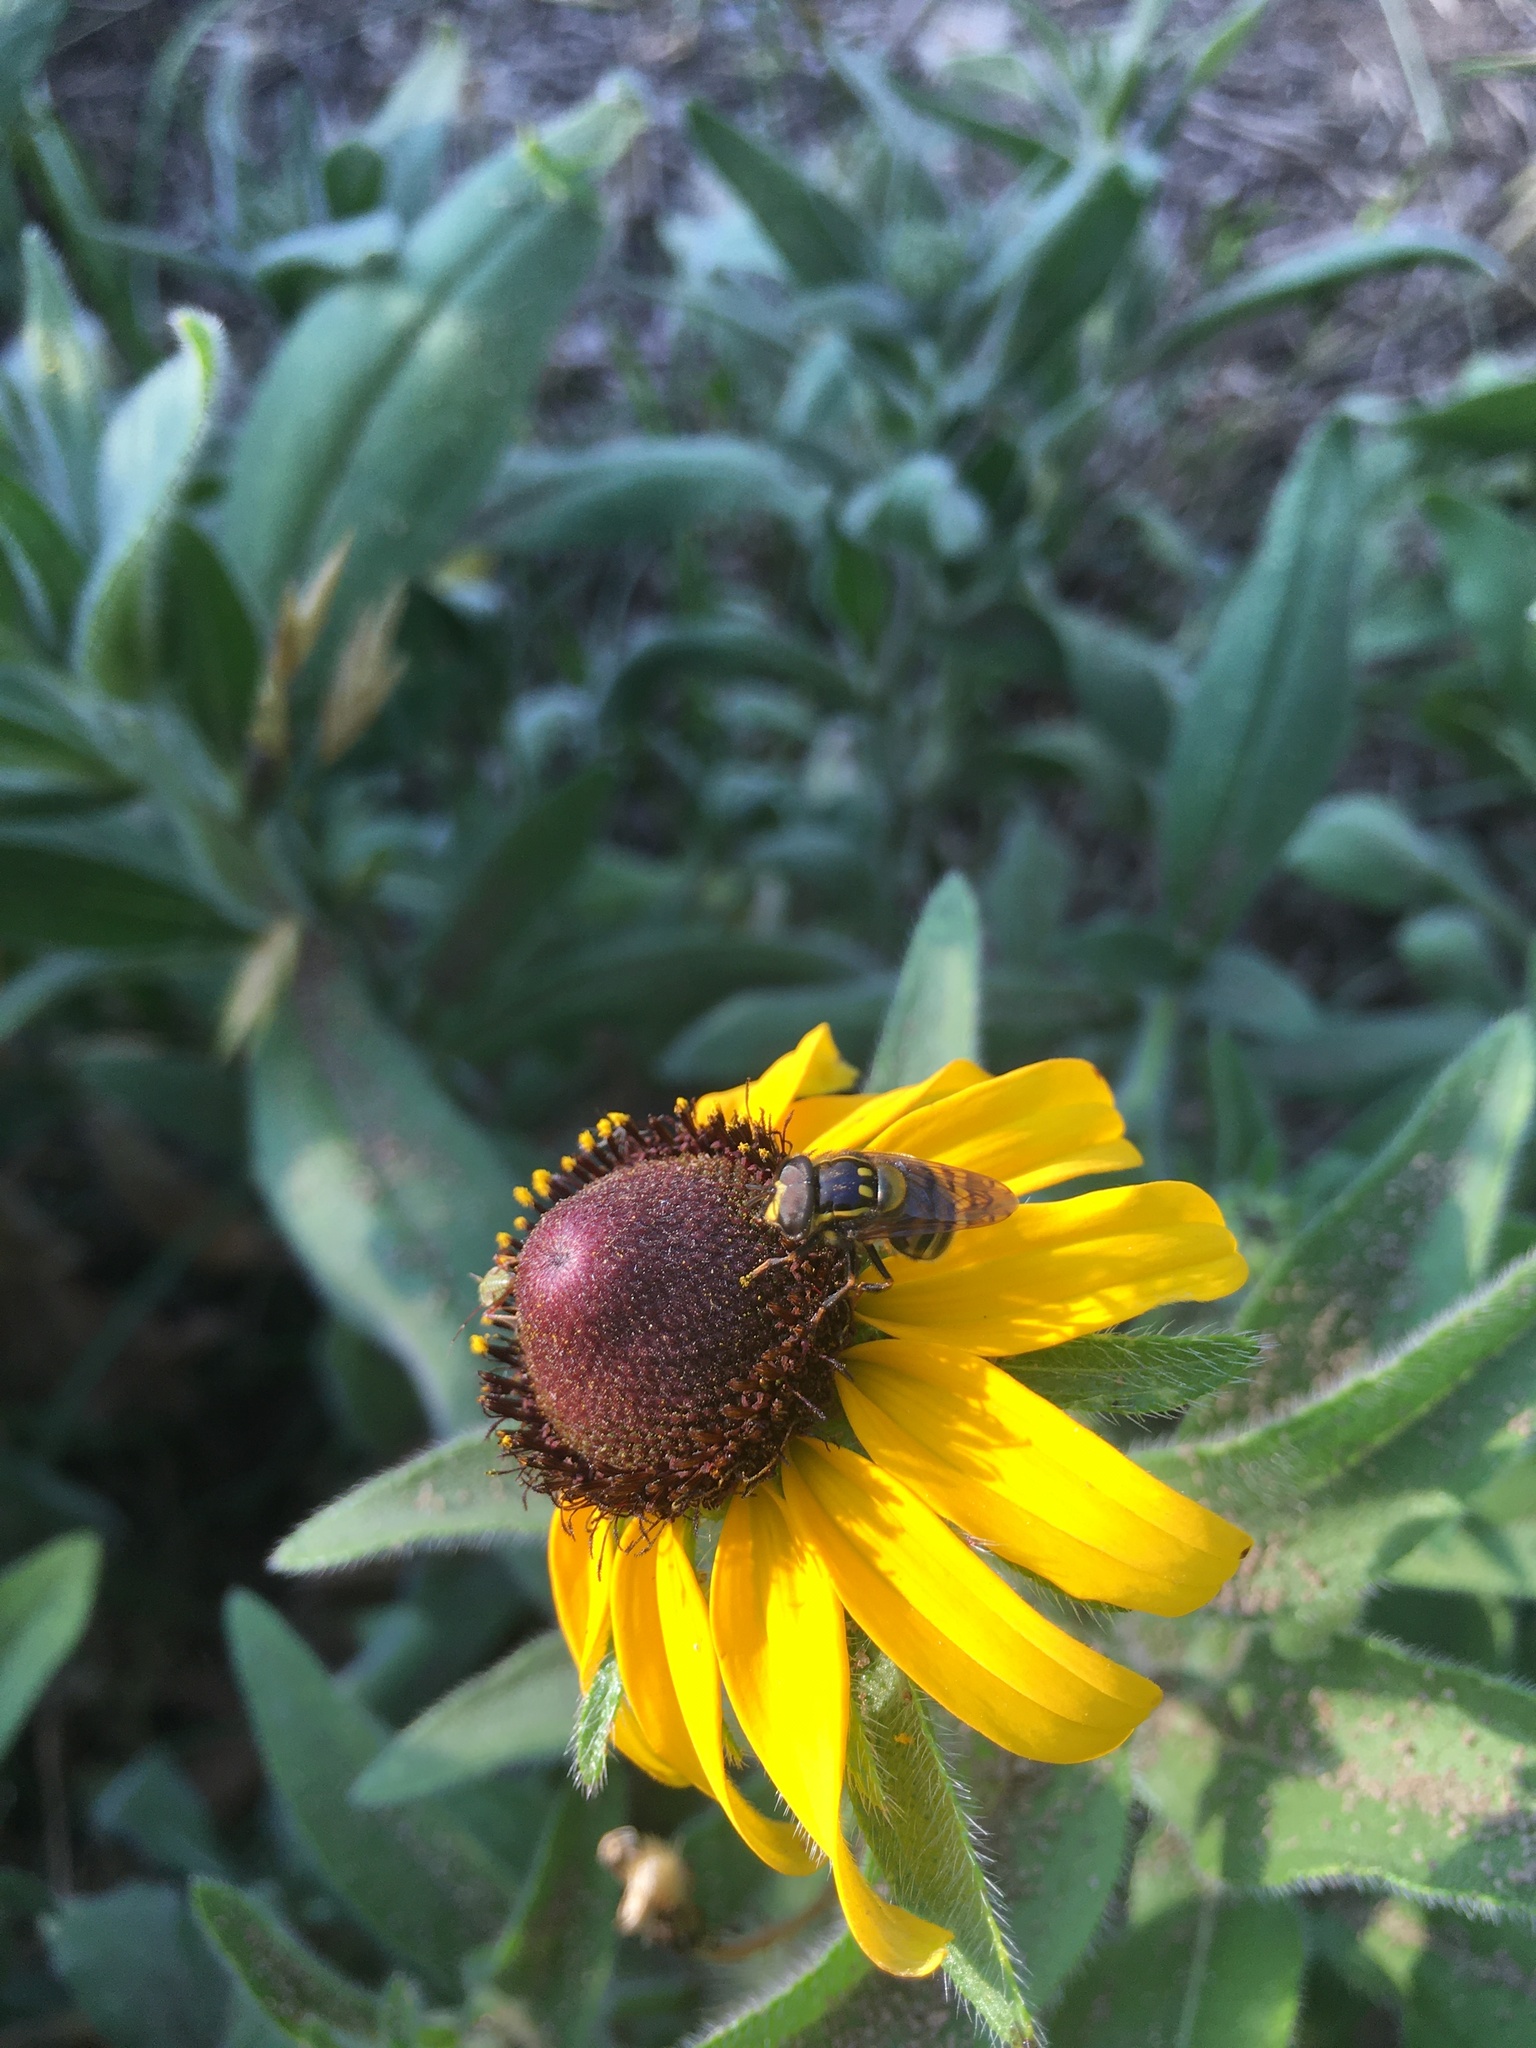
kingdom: Animalia
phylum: Arthropoda
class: Insecta
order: Diptera
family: Syrphidae
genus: Copestylum
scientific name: Copestylum vittatum
